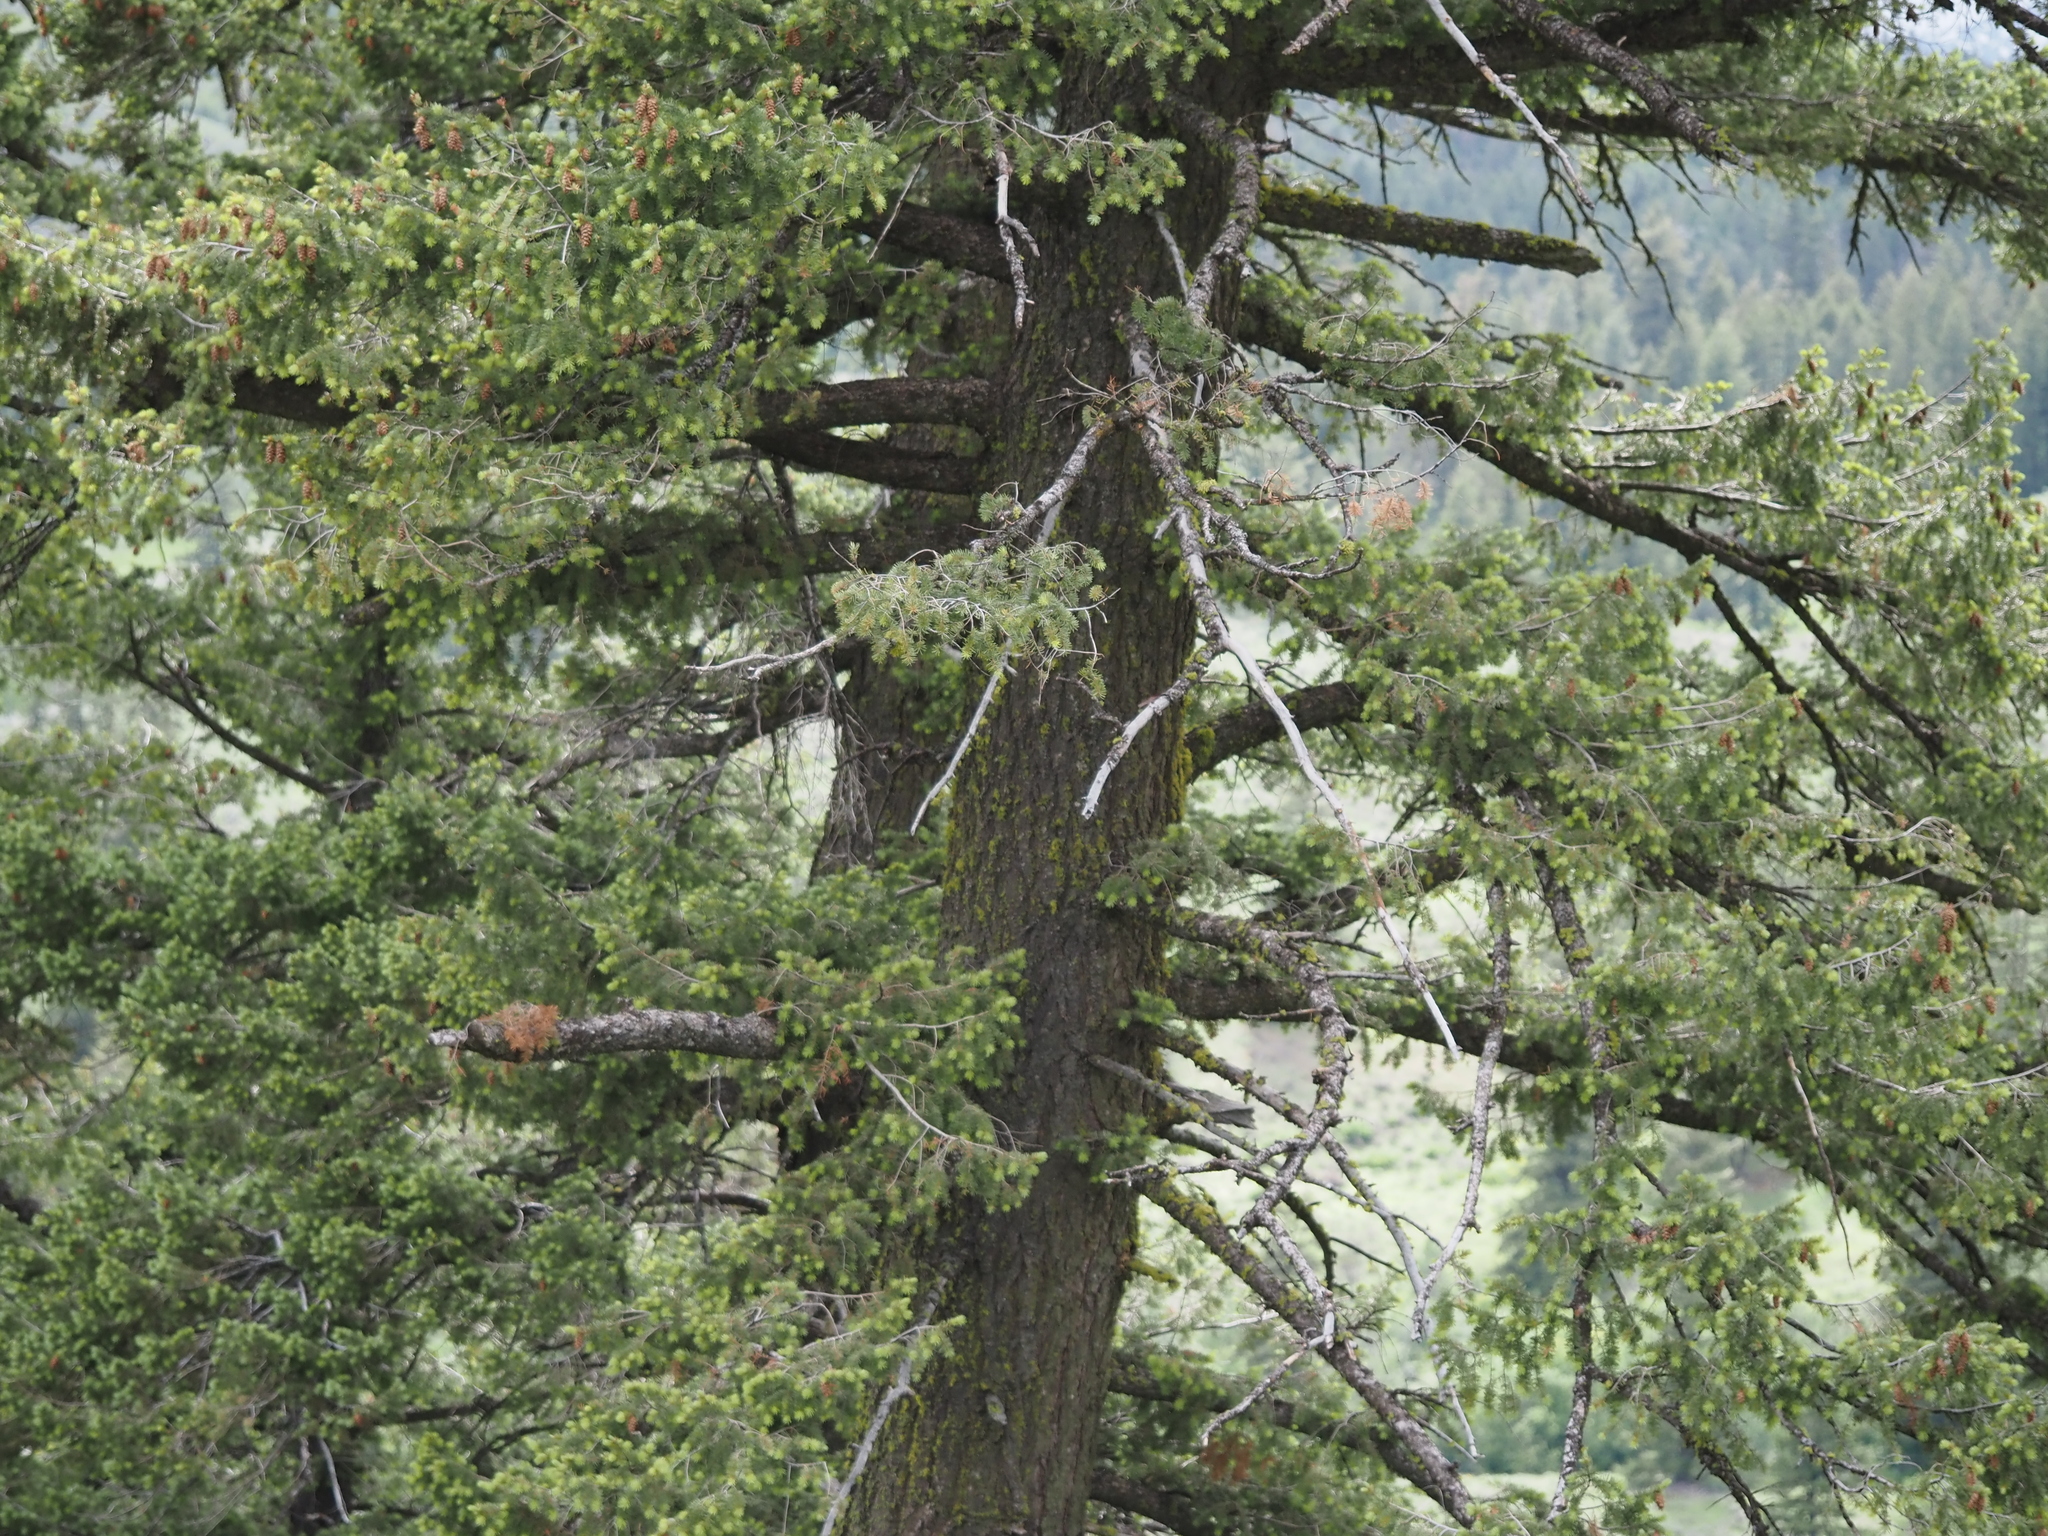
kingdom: Plantae
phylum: Tracheophyta
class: Pinopsida
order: Pinales
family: Pinaceae
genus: Pseudotsuga
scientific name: Pseudotsuga menziesii
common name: Douglas fir
